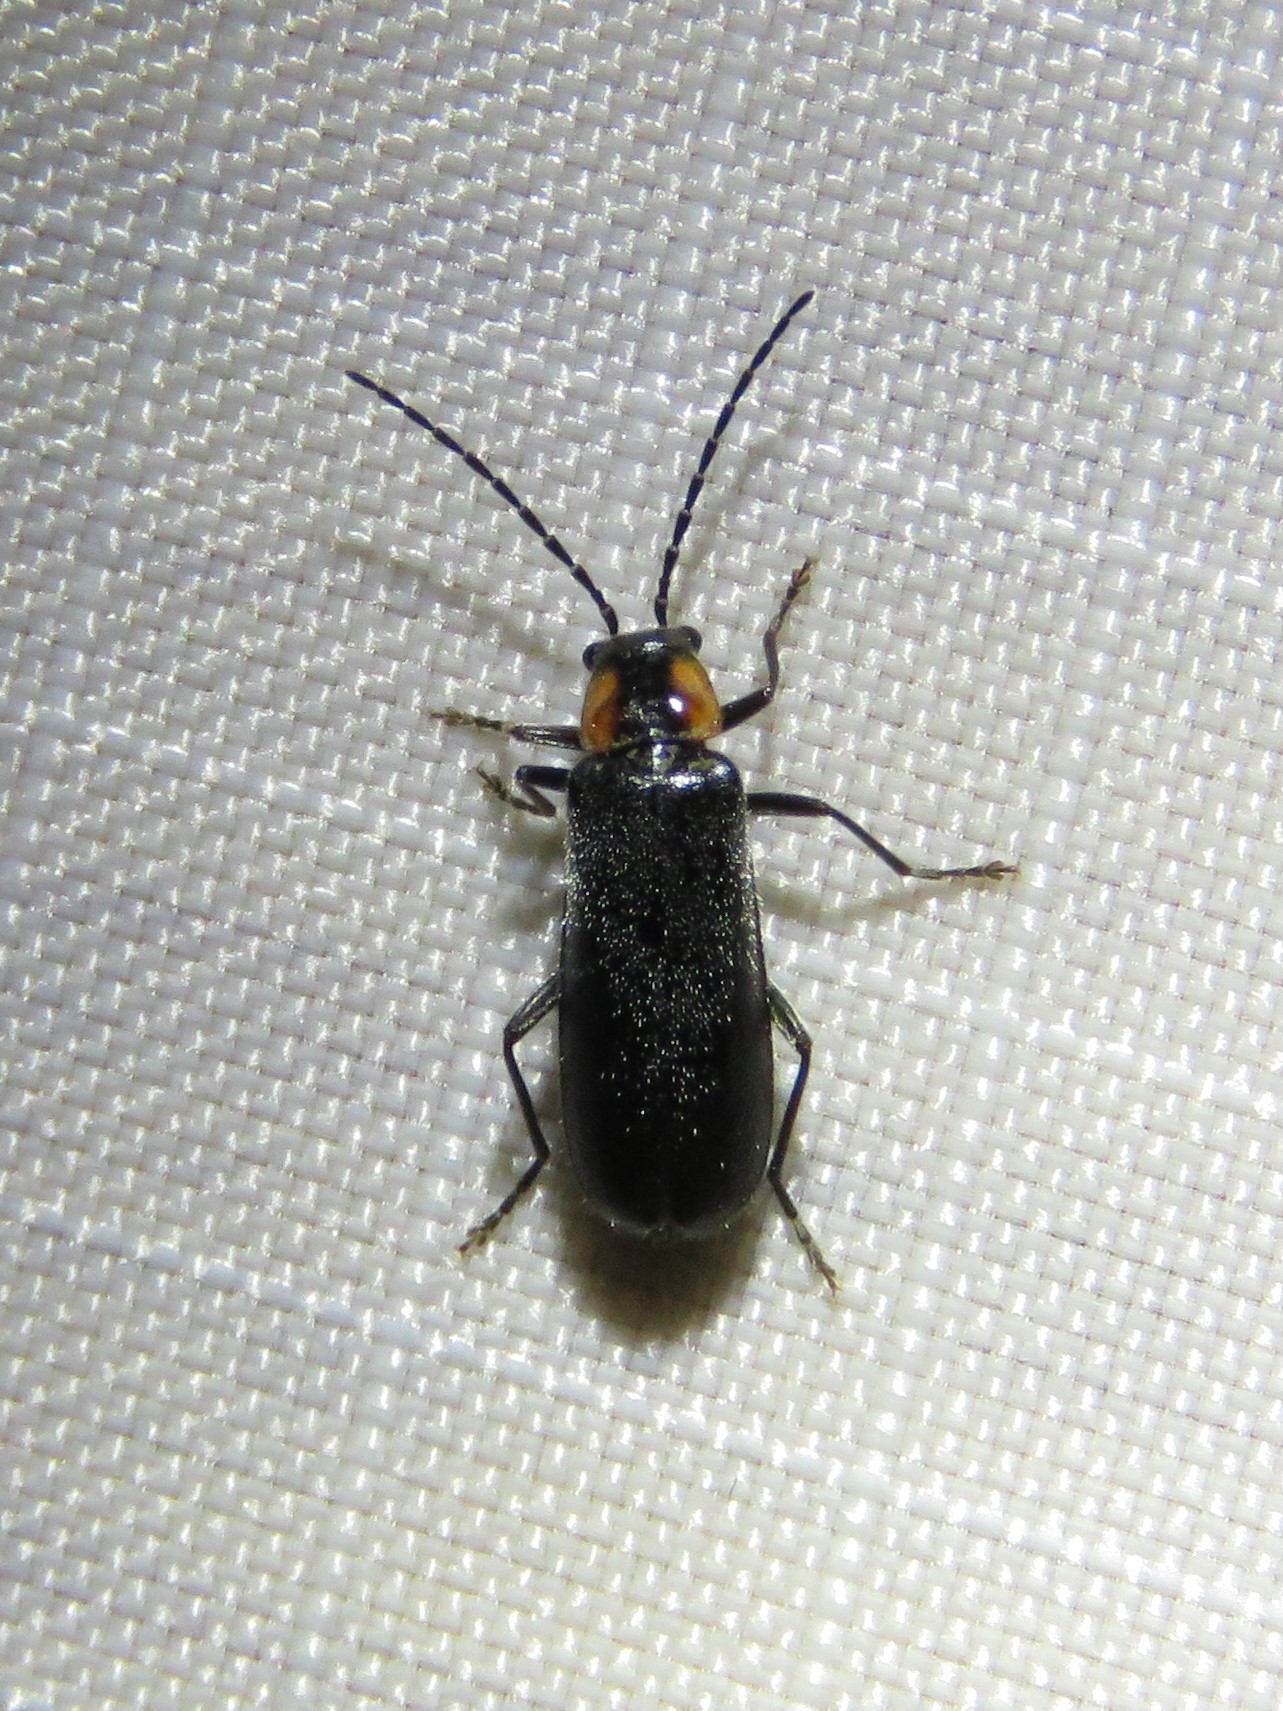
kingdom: Animalia
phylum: Arthropoda
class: Insecta
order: Coleoptera
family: Cantharidae
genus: Rhagonycha
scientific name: Rhagonycha lineola
